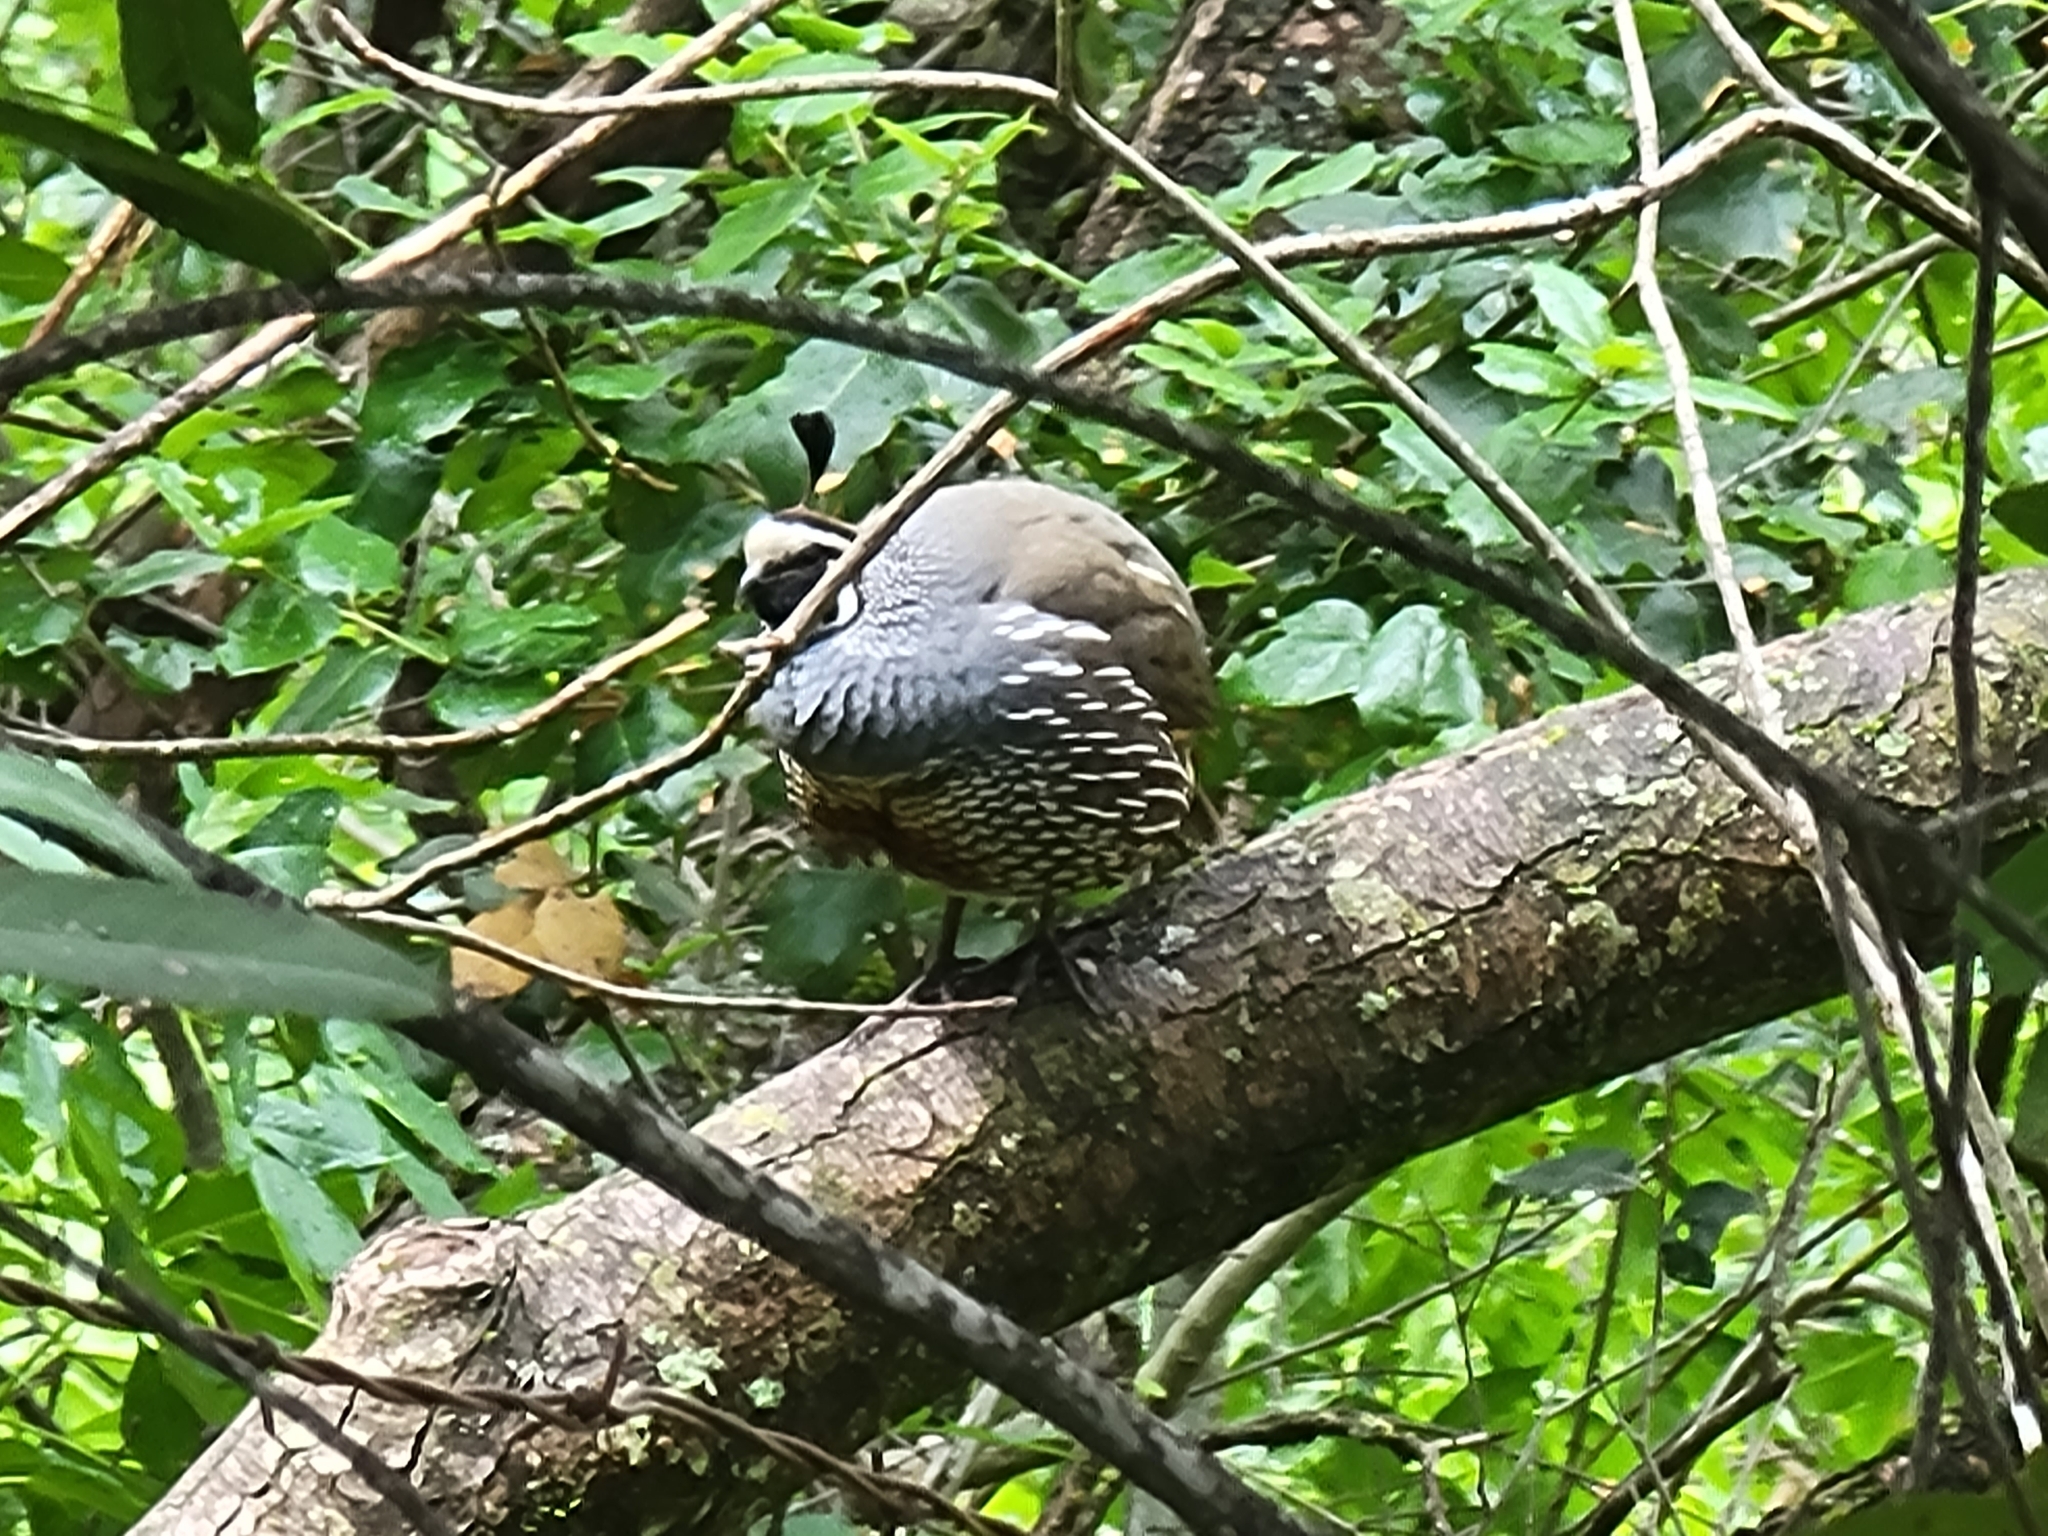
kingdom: Animalia
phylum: Chordata
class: Aves
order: Galliformes
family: Odontophoridae
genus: Callipepla
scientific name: Callipepla californica
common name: California quail
